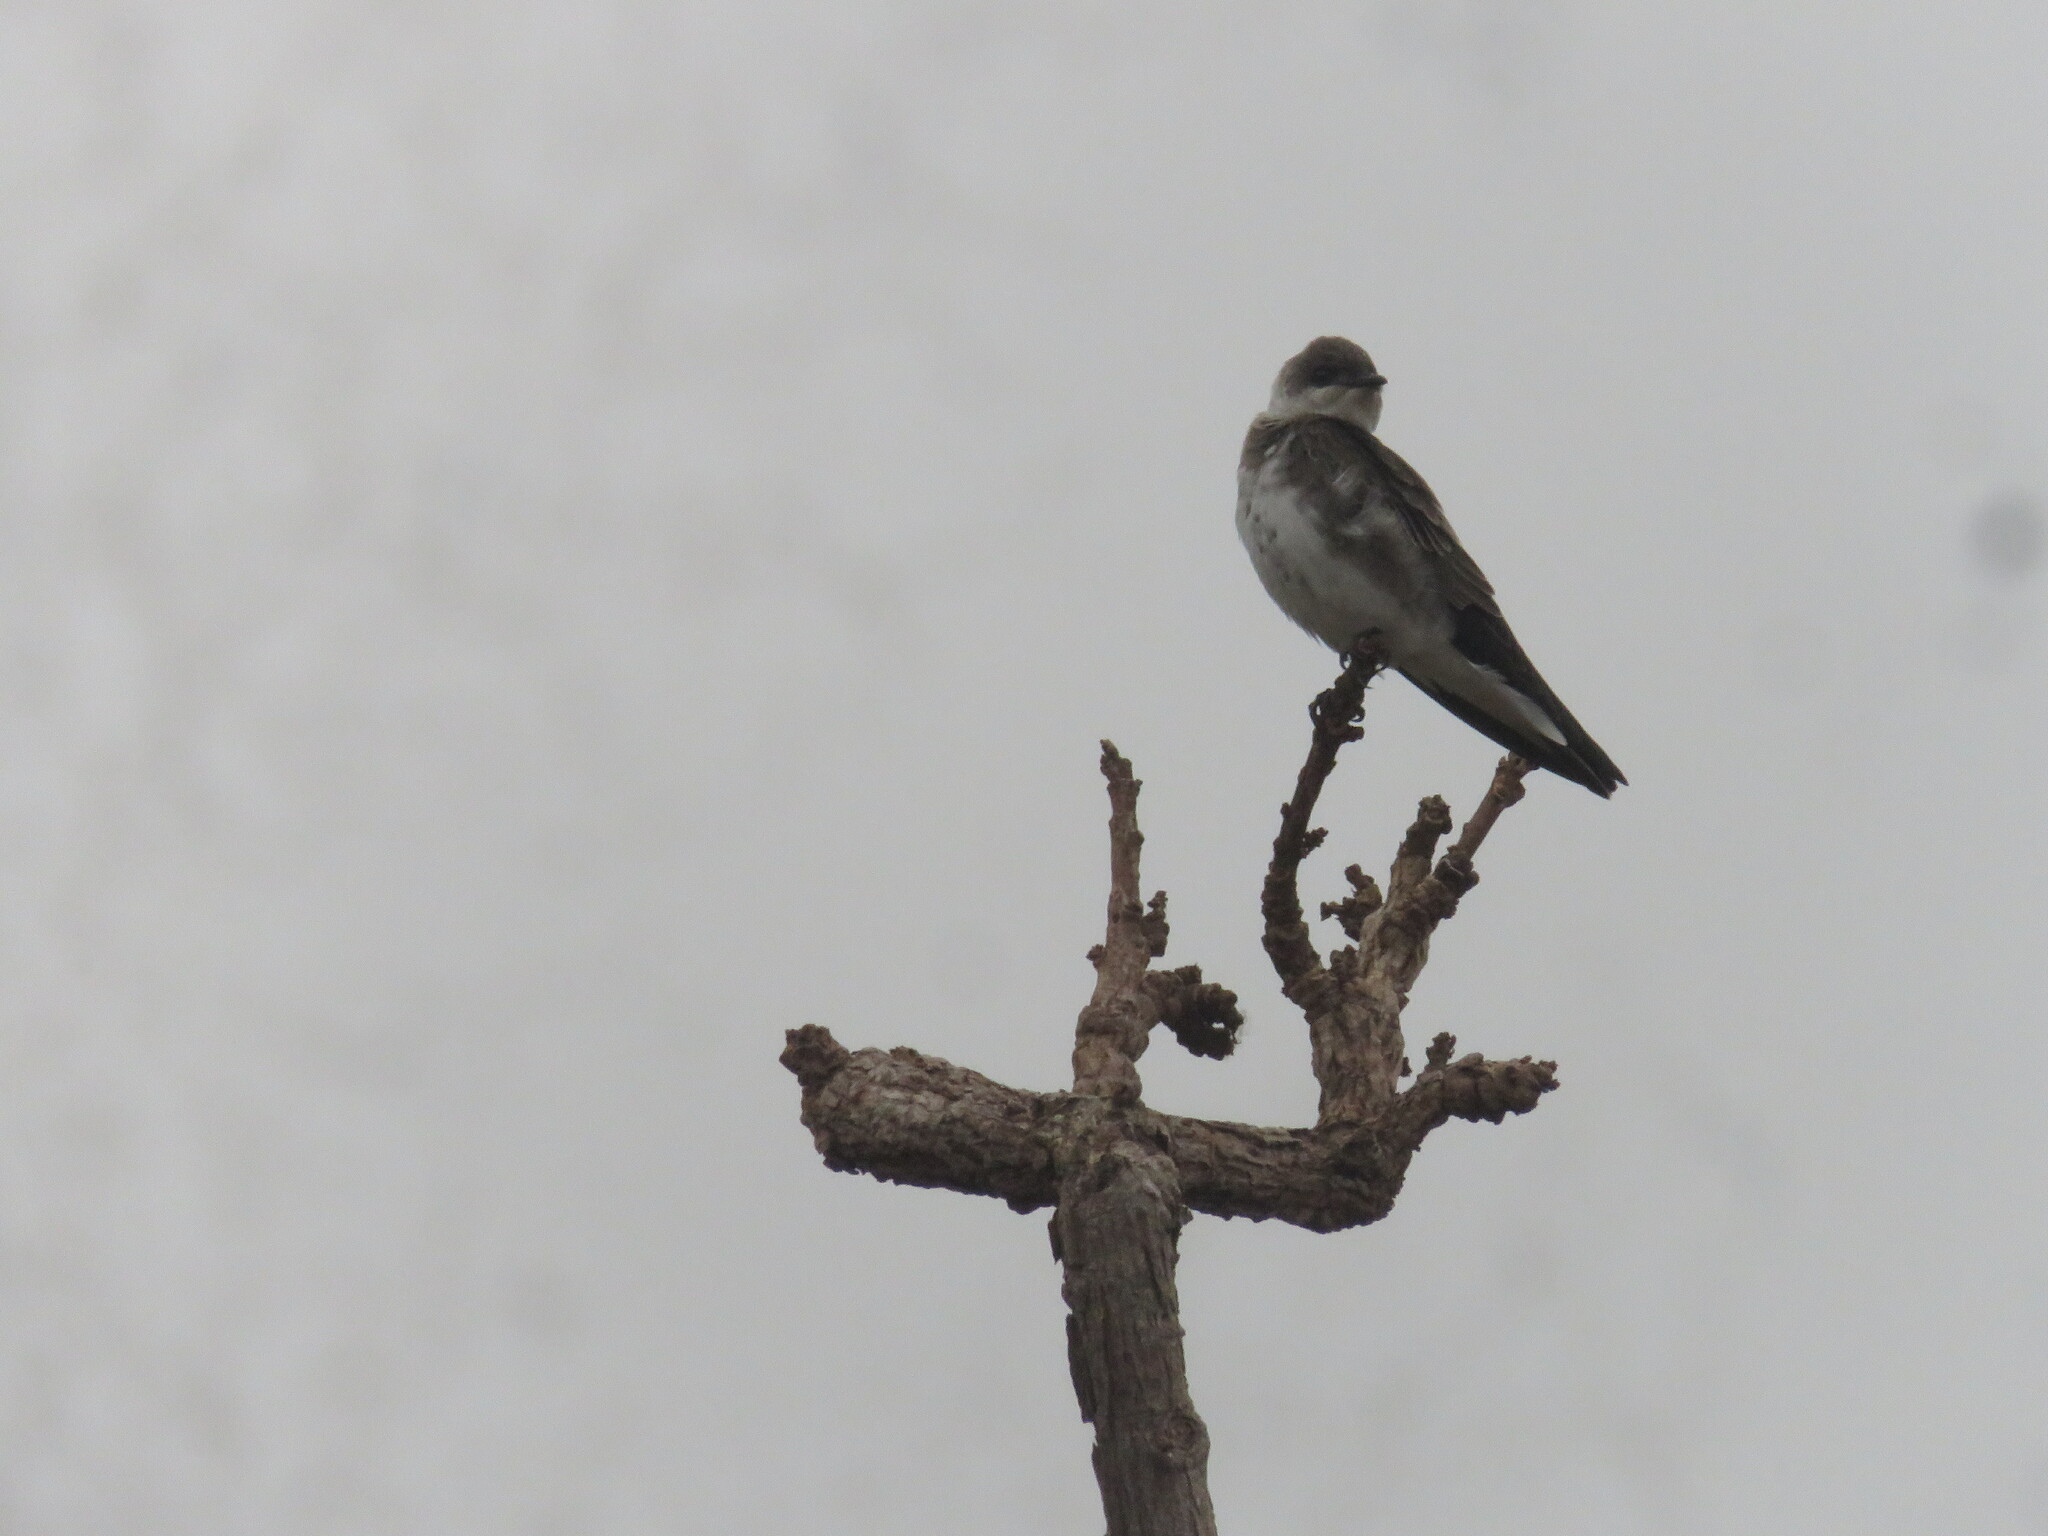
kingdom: Animalia
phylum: Chordata
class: Aves
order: Passeriformes
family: Hirundinidae
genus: Riparia
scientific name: Riparia riparia
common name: Sand martin
